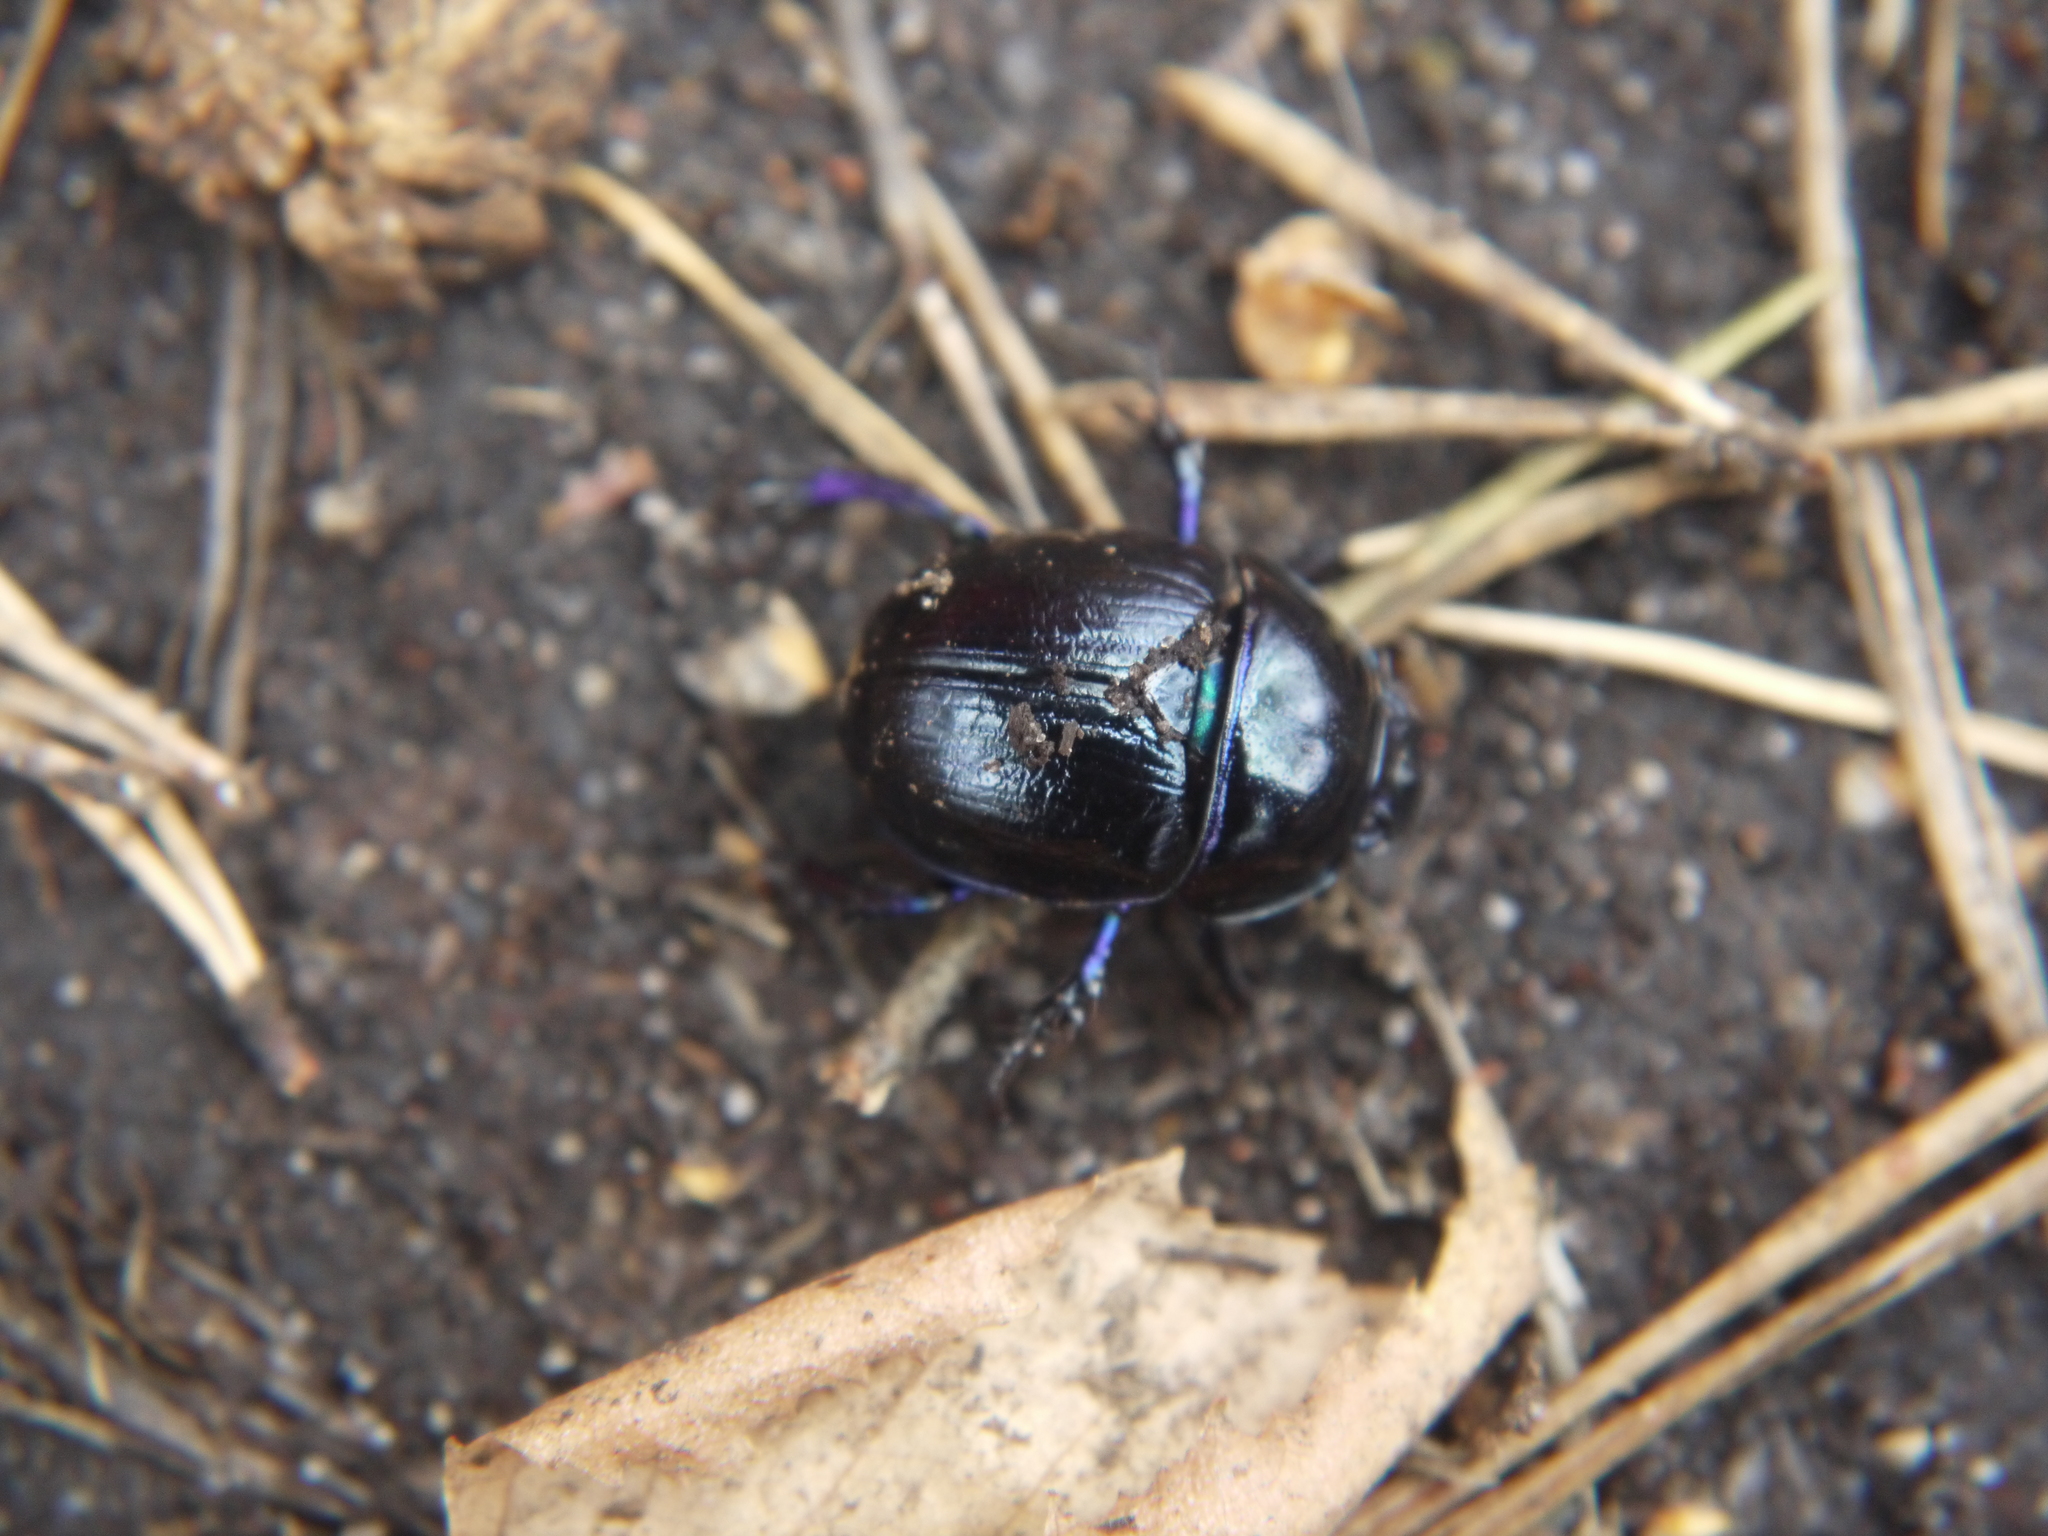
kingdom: Animalia
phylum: Arthropoda
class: Insecta
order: Coleoptera
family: Geotrupidae
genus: Anoplotrupes
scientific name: Anoplotrupes stercorosus
